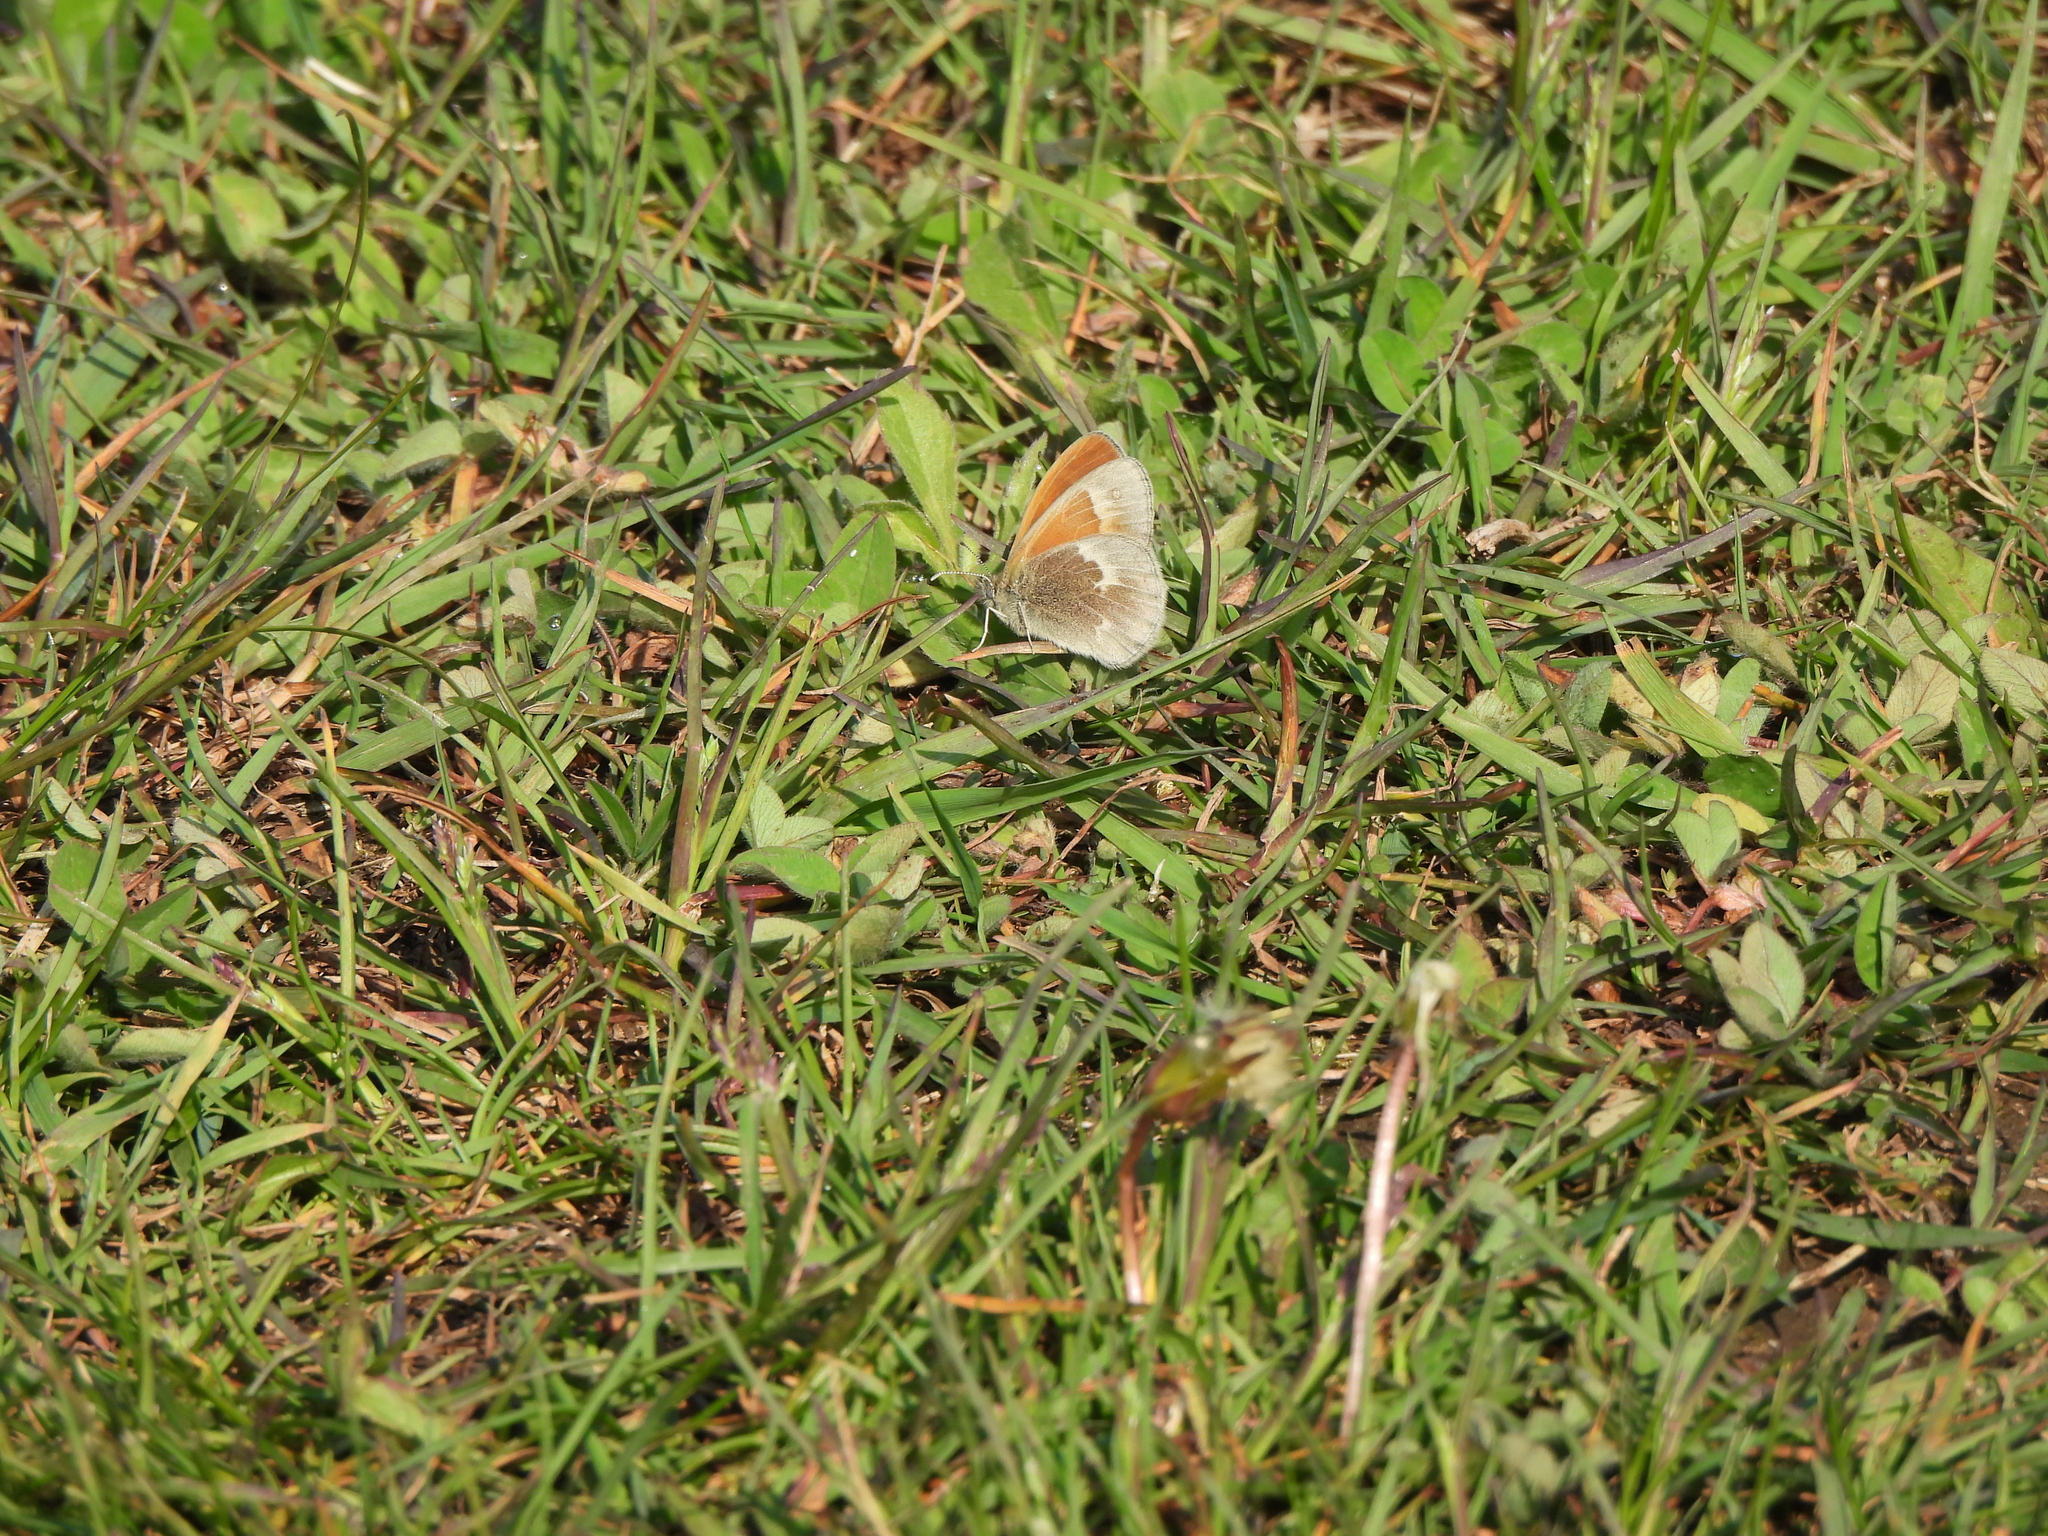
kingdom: Animalia
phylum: Arthropoda
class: Insecta
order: Lepidoptera
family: Nymphalidae
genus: Coenonympha
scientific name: Coenonympha california
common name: Common ringlet
